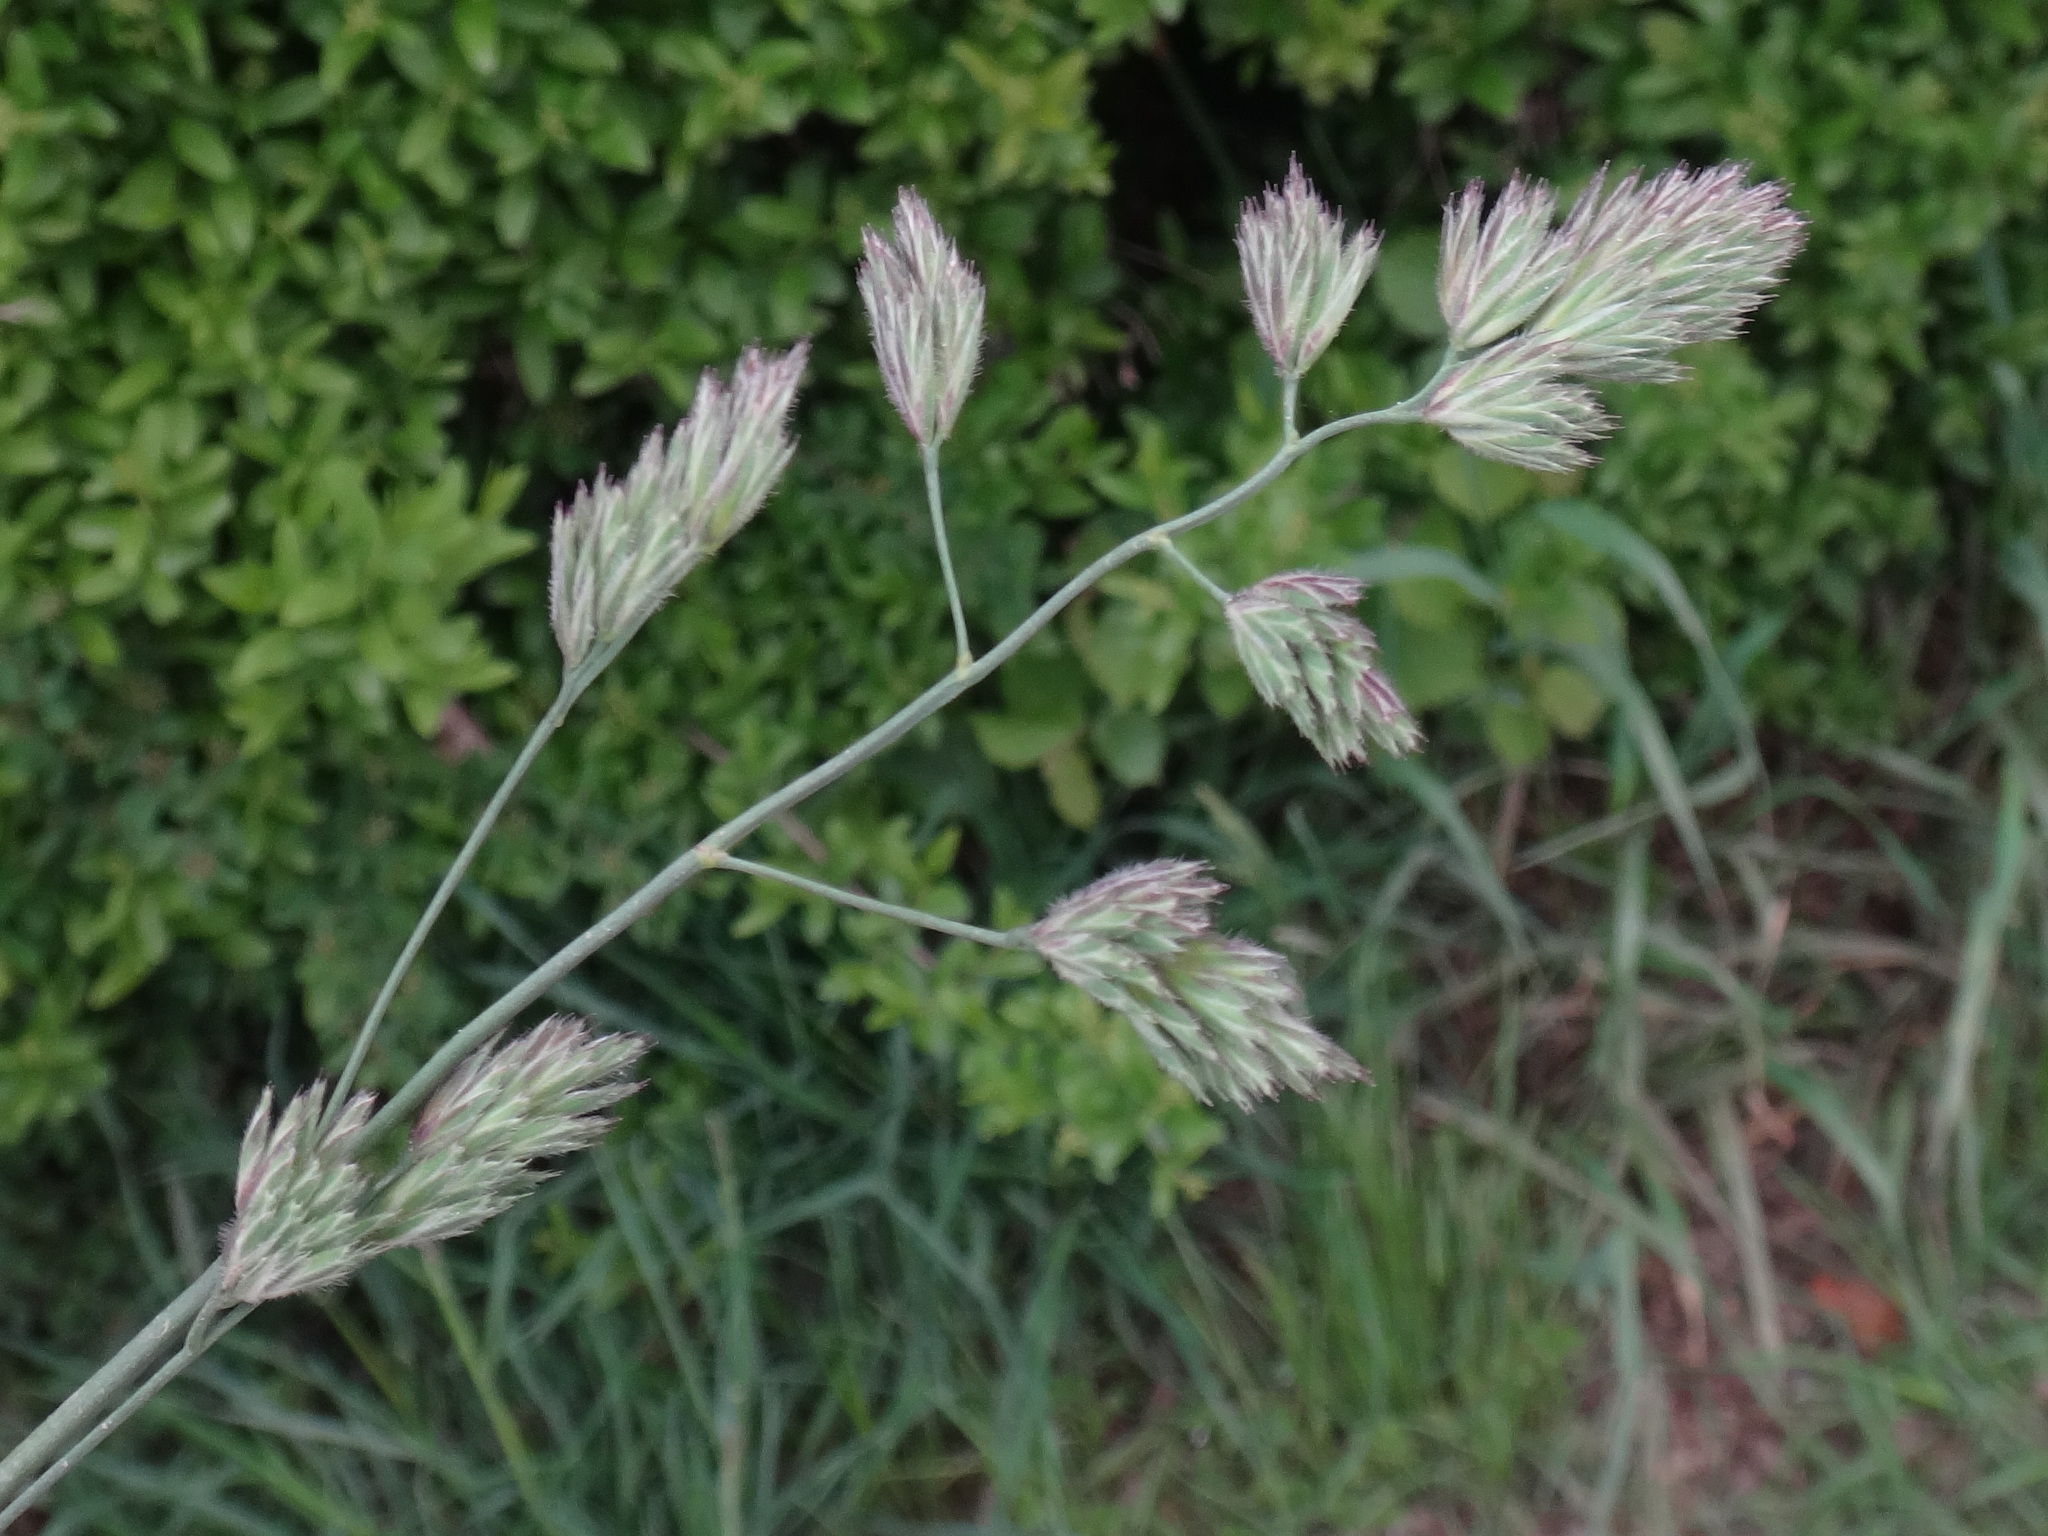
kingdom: Plantae
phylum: Tracheophyta
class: Liliopsida
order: Poales
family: Poaceae
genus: Dactylis
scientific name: Dactylis glomerata
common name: Orchardgrass
